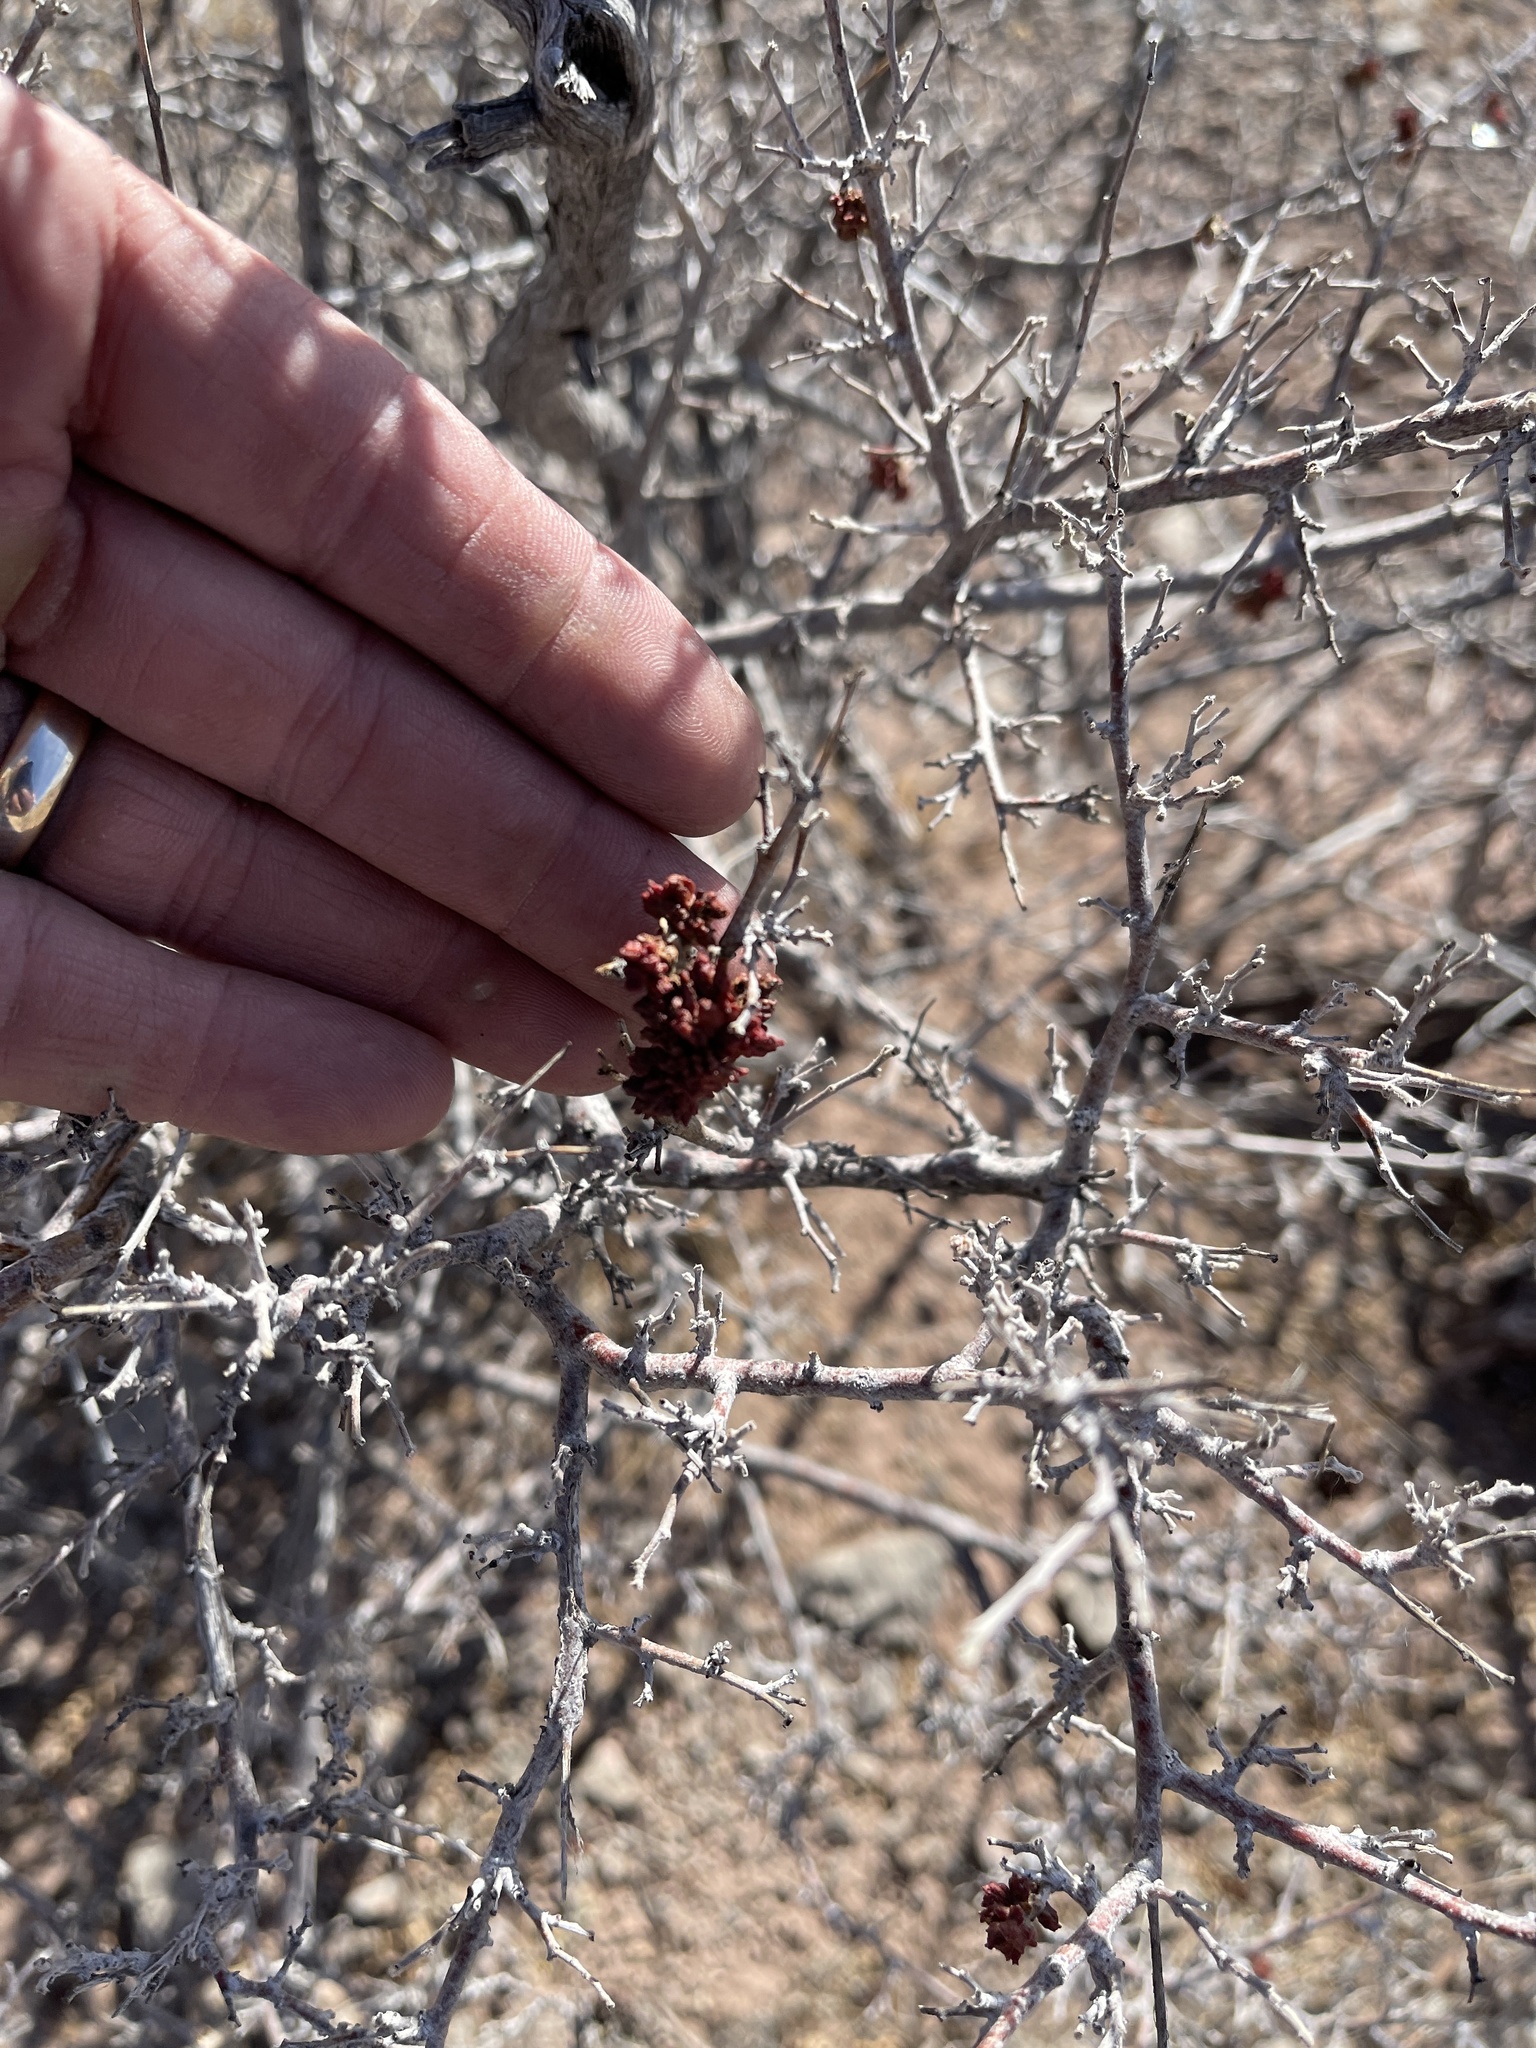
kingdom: Plantae
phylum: Tracheophyta
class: Magnoliopsida
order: Sapindales
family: Anacardiaceae
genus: Rhus
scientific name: Rhus microphylla
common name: Desert sumac
